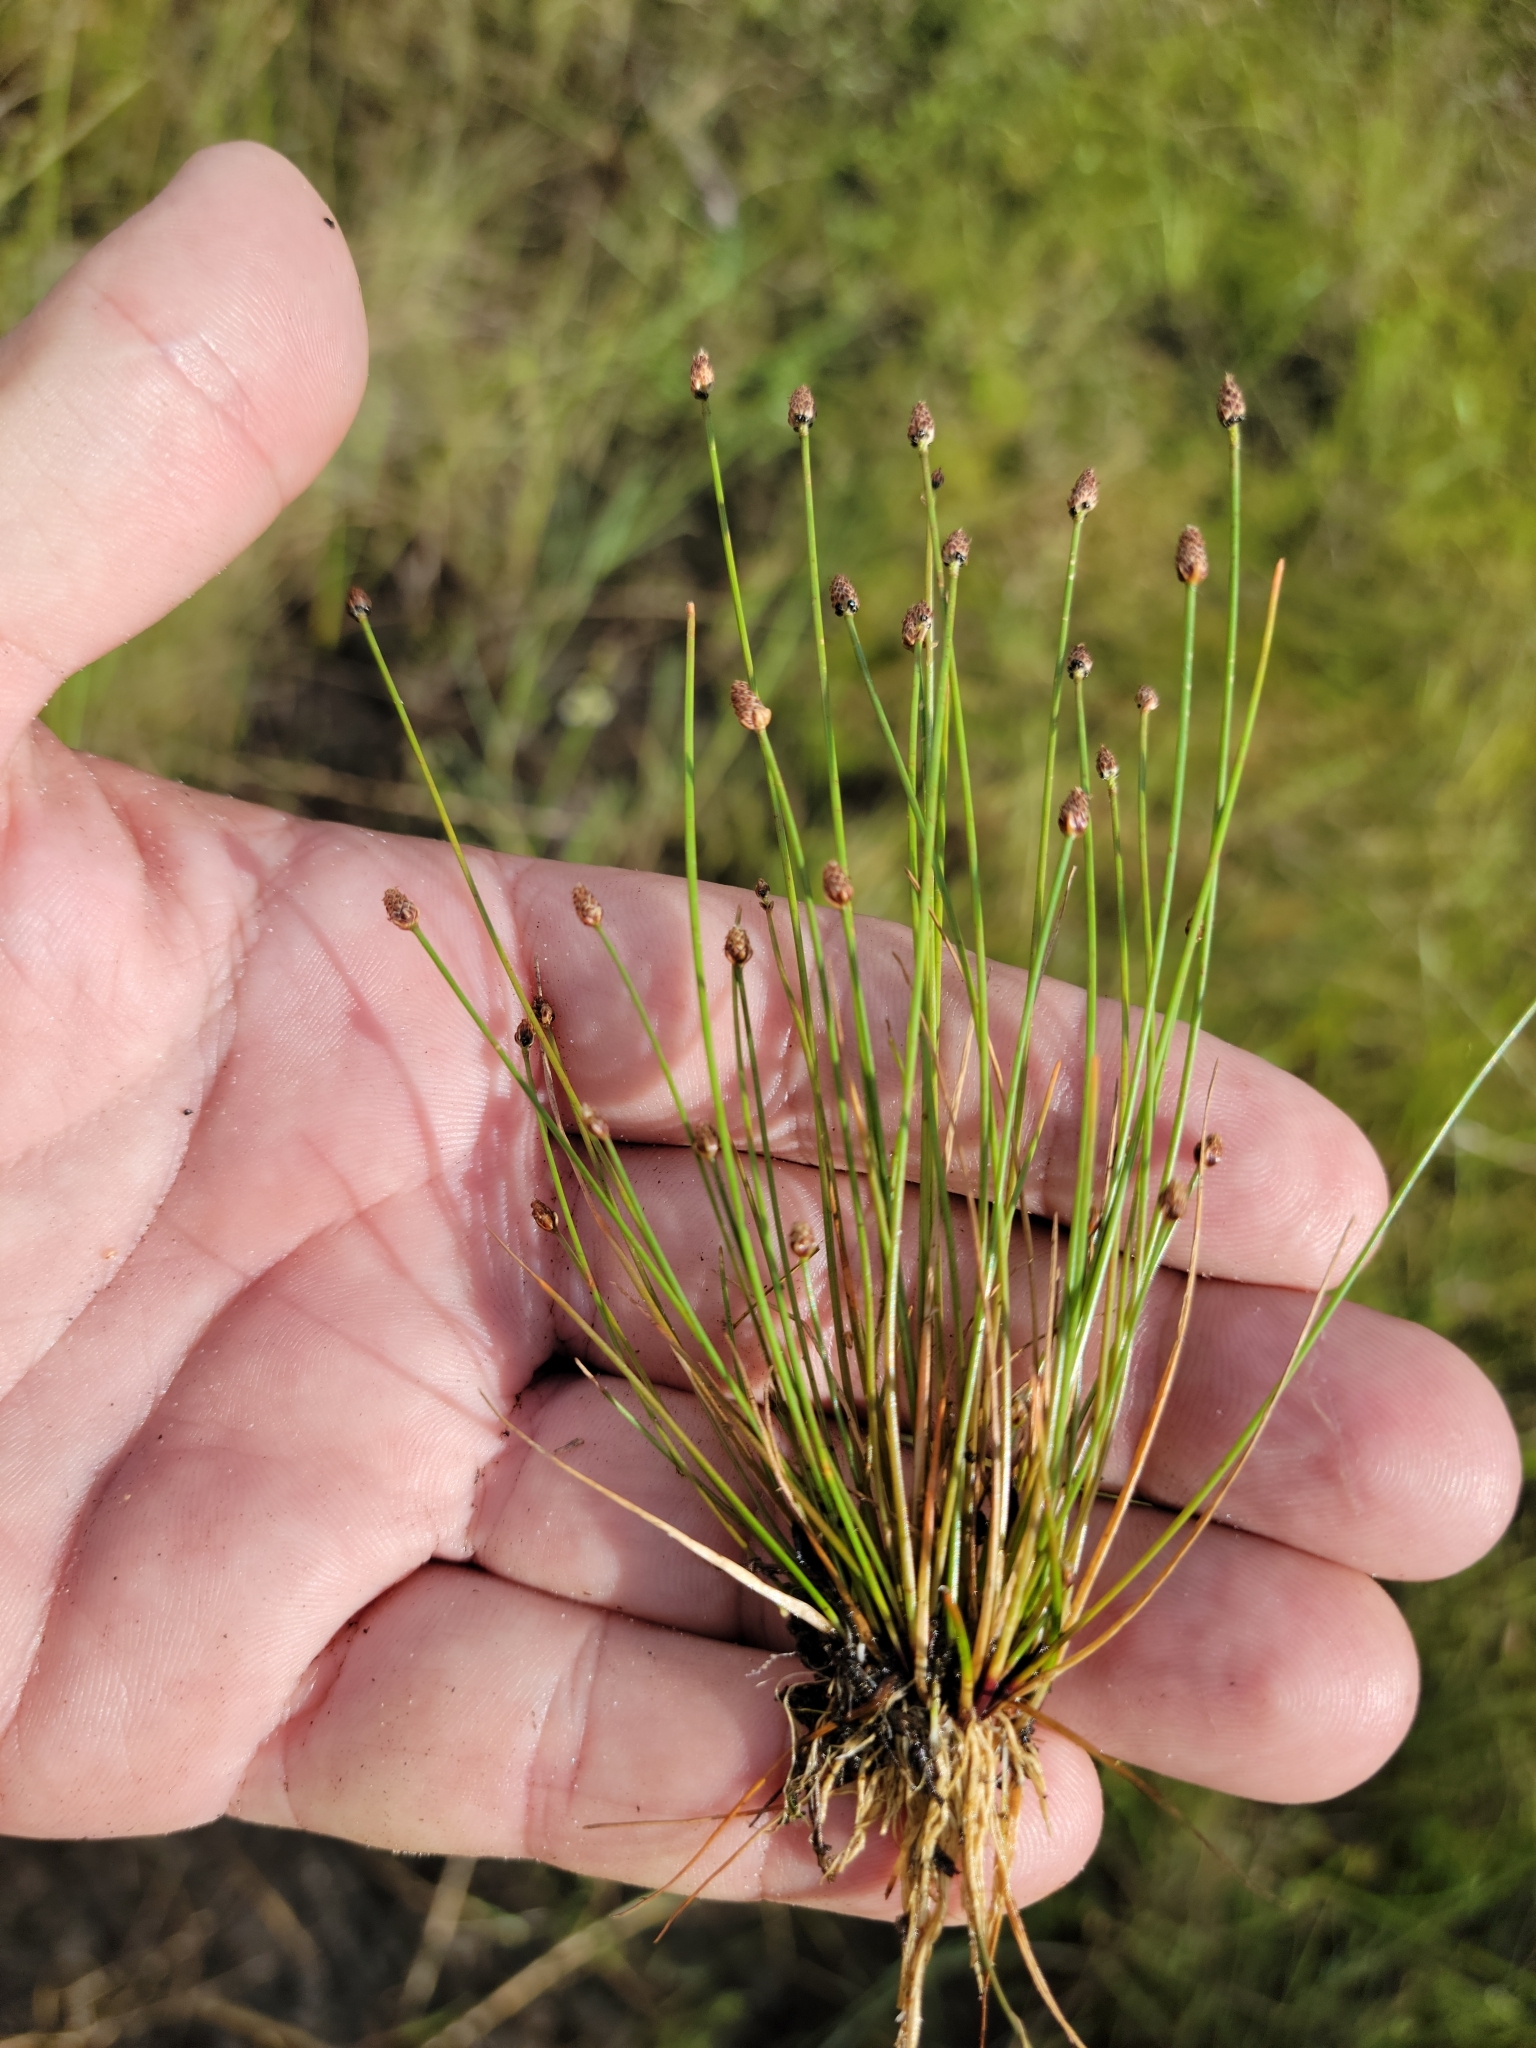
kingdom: Plantae
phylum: Tracheophyta
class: Liliopsida
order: Poales
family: Cyperaceae
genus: Eleocharis
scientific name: Eleocharis geniculata
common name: Canada spikesedge
